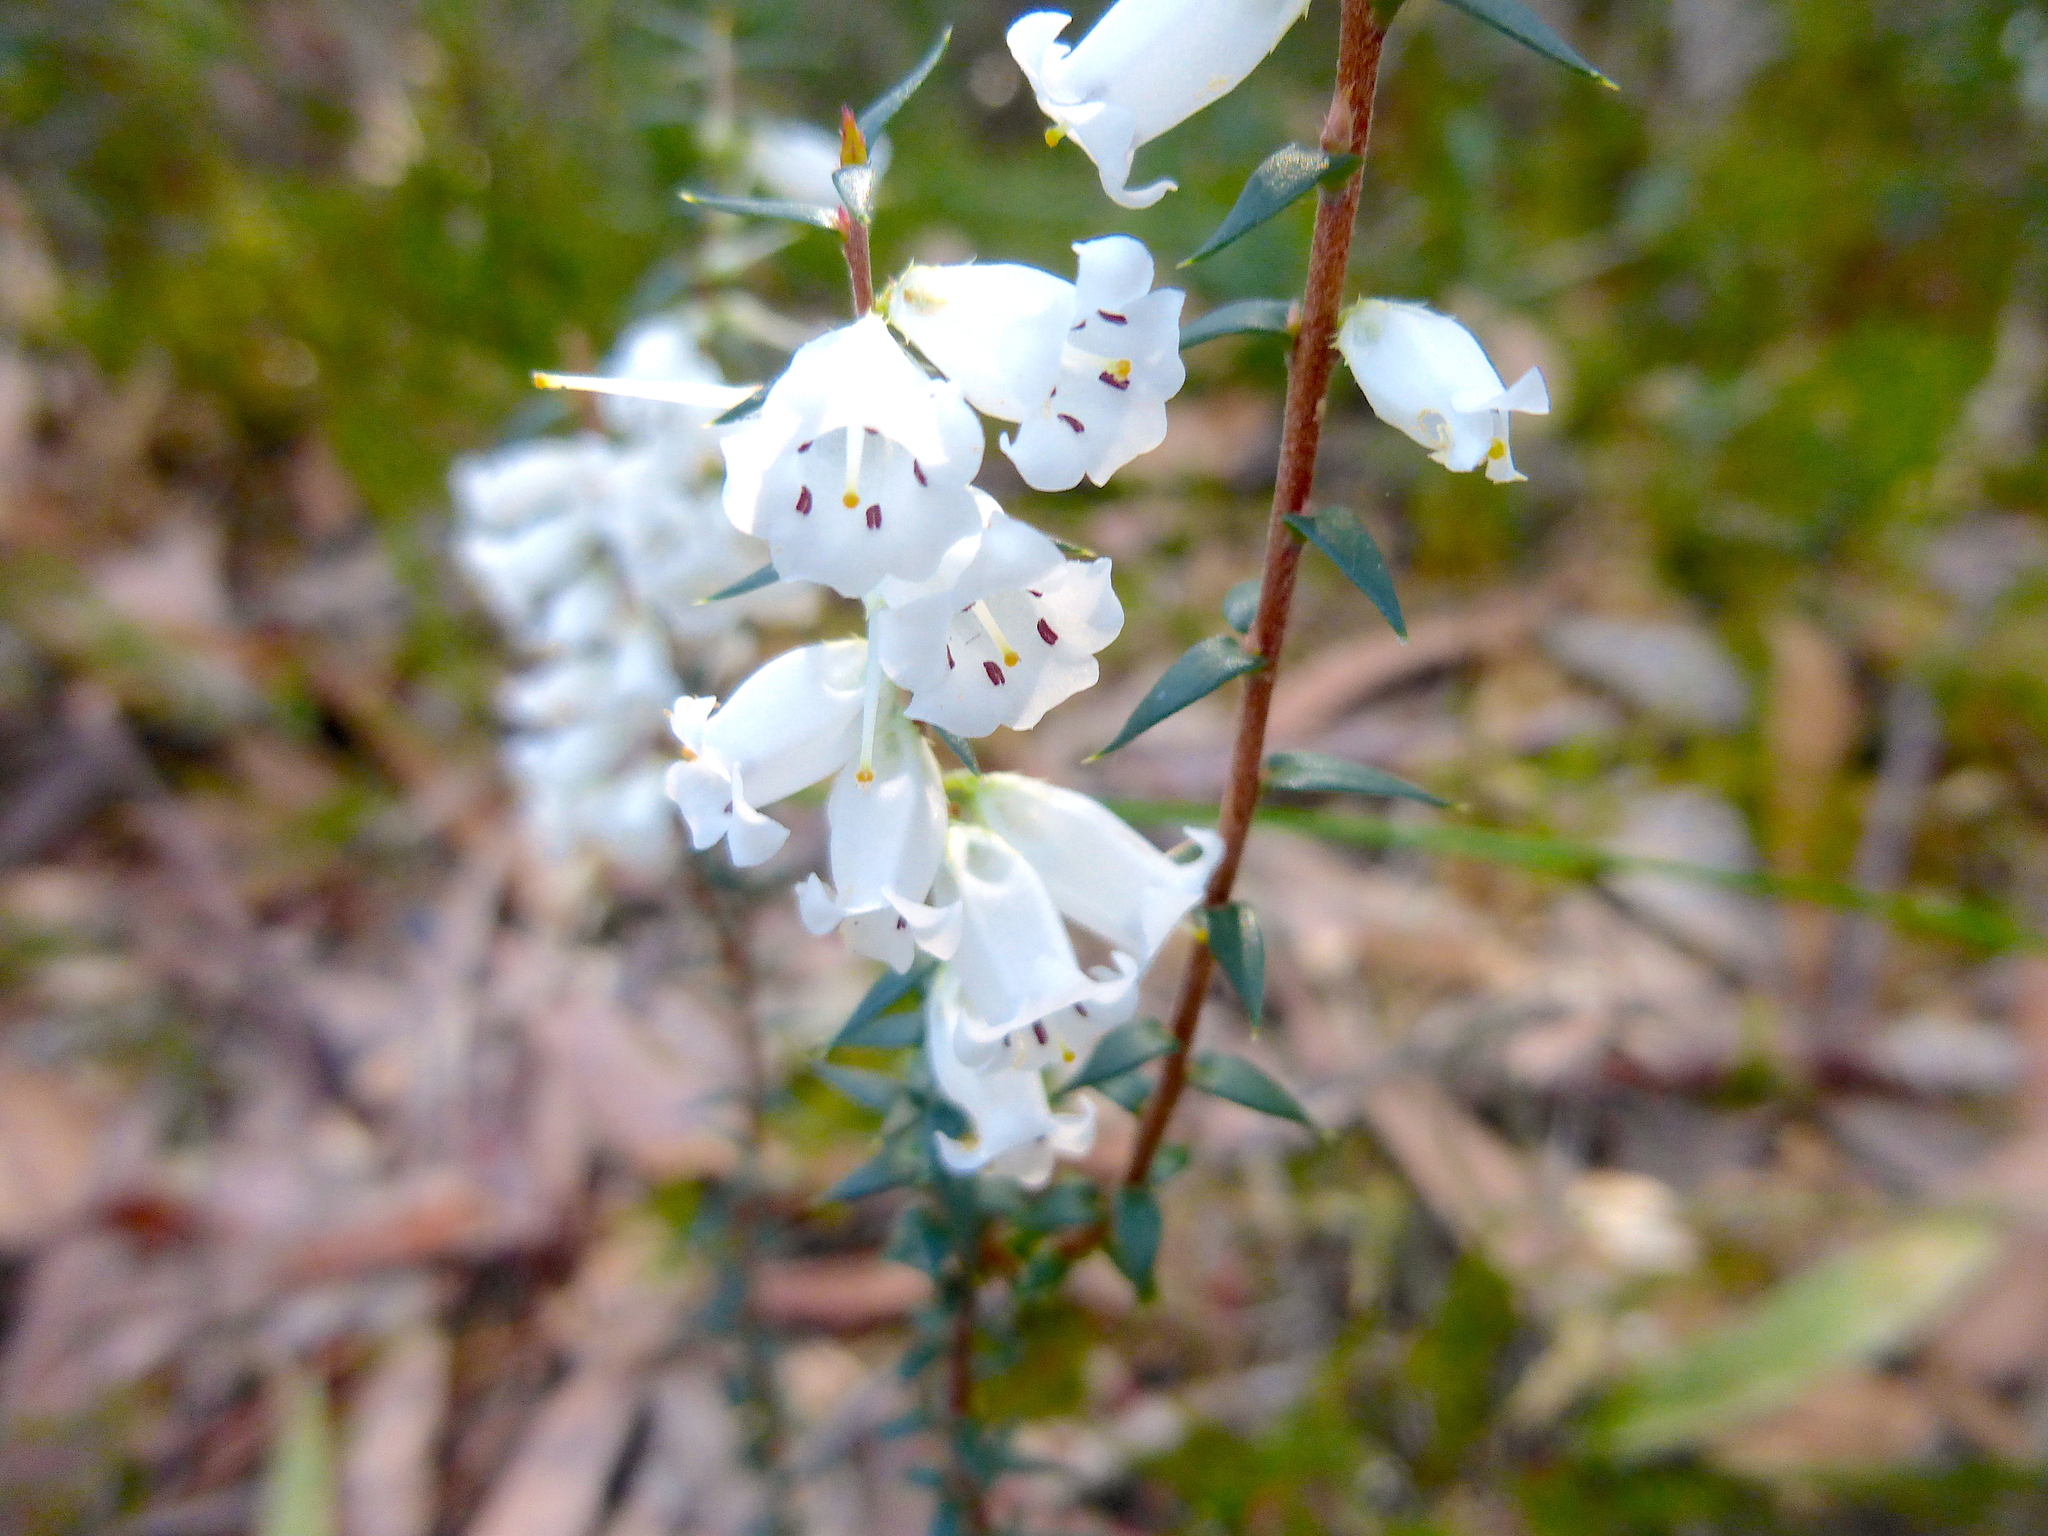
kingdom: Plantae
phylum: Tracheophyta
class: Magnoliopsida
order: Ericales
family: Ericaceae
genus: Epacris
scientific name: Epacris impressa
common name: Common-heath
